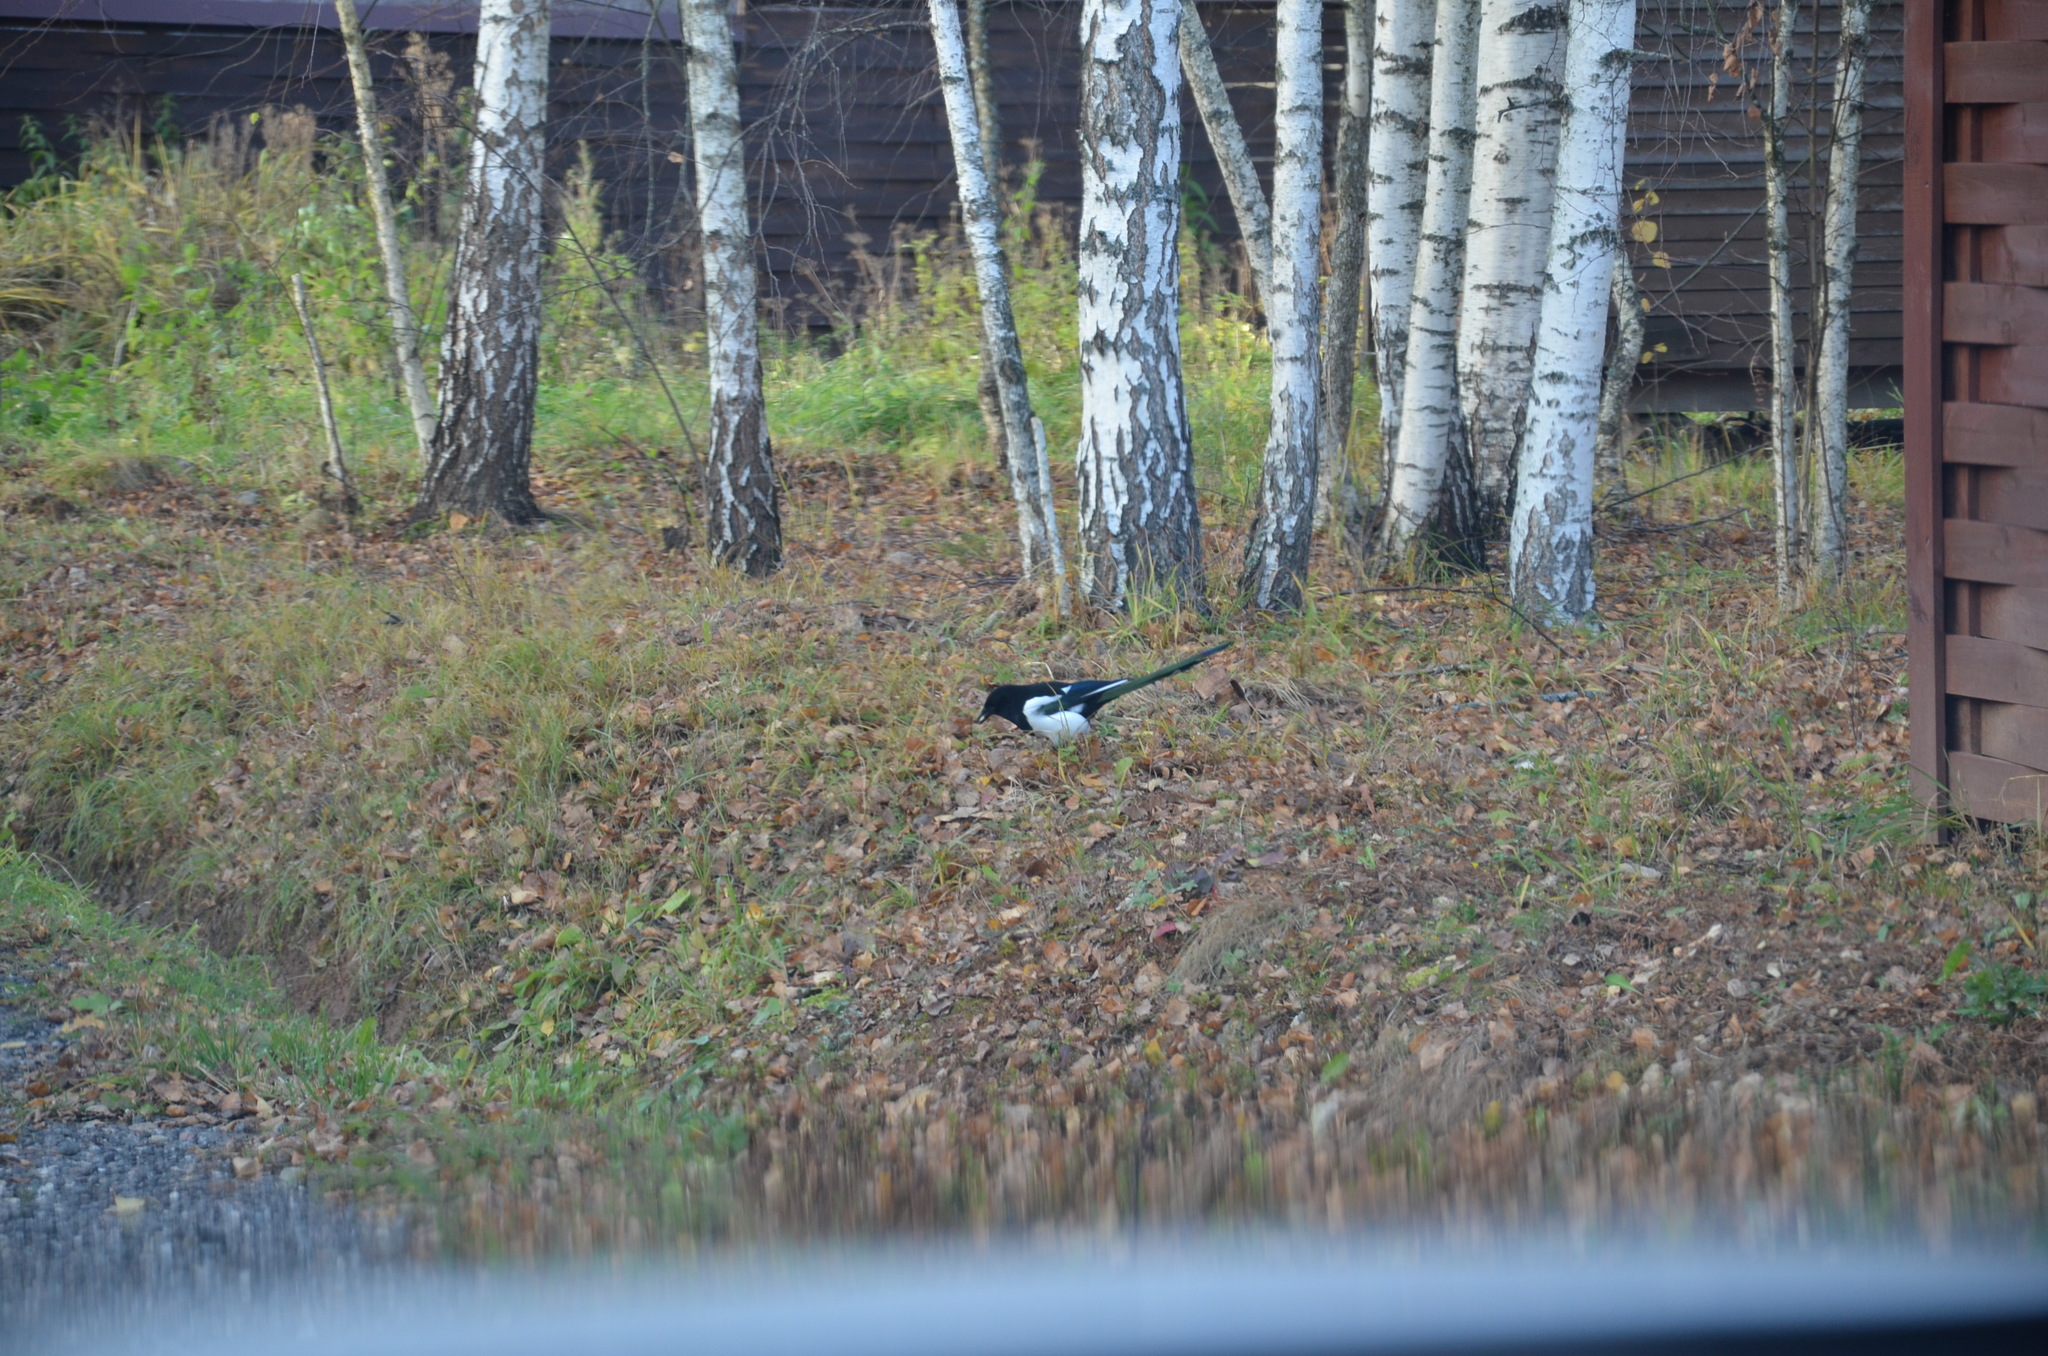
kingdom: Animalia
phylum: Chordata
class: Aves
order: Passeriformes
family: Corvidae
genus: Pica
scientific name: Pica pica
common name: Eurasian magpie
